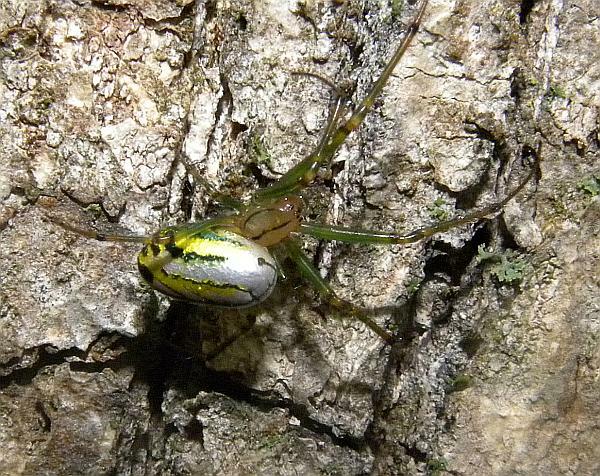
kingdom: Animalia
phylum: Arthropoda
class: Arachnida
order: Araneae
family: Tetragnathidae
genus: Leucauge
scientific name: Leucauge venusta
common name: Longjawed orb weavers
